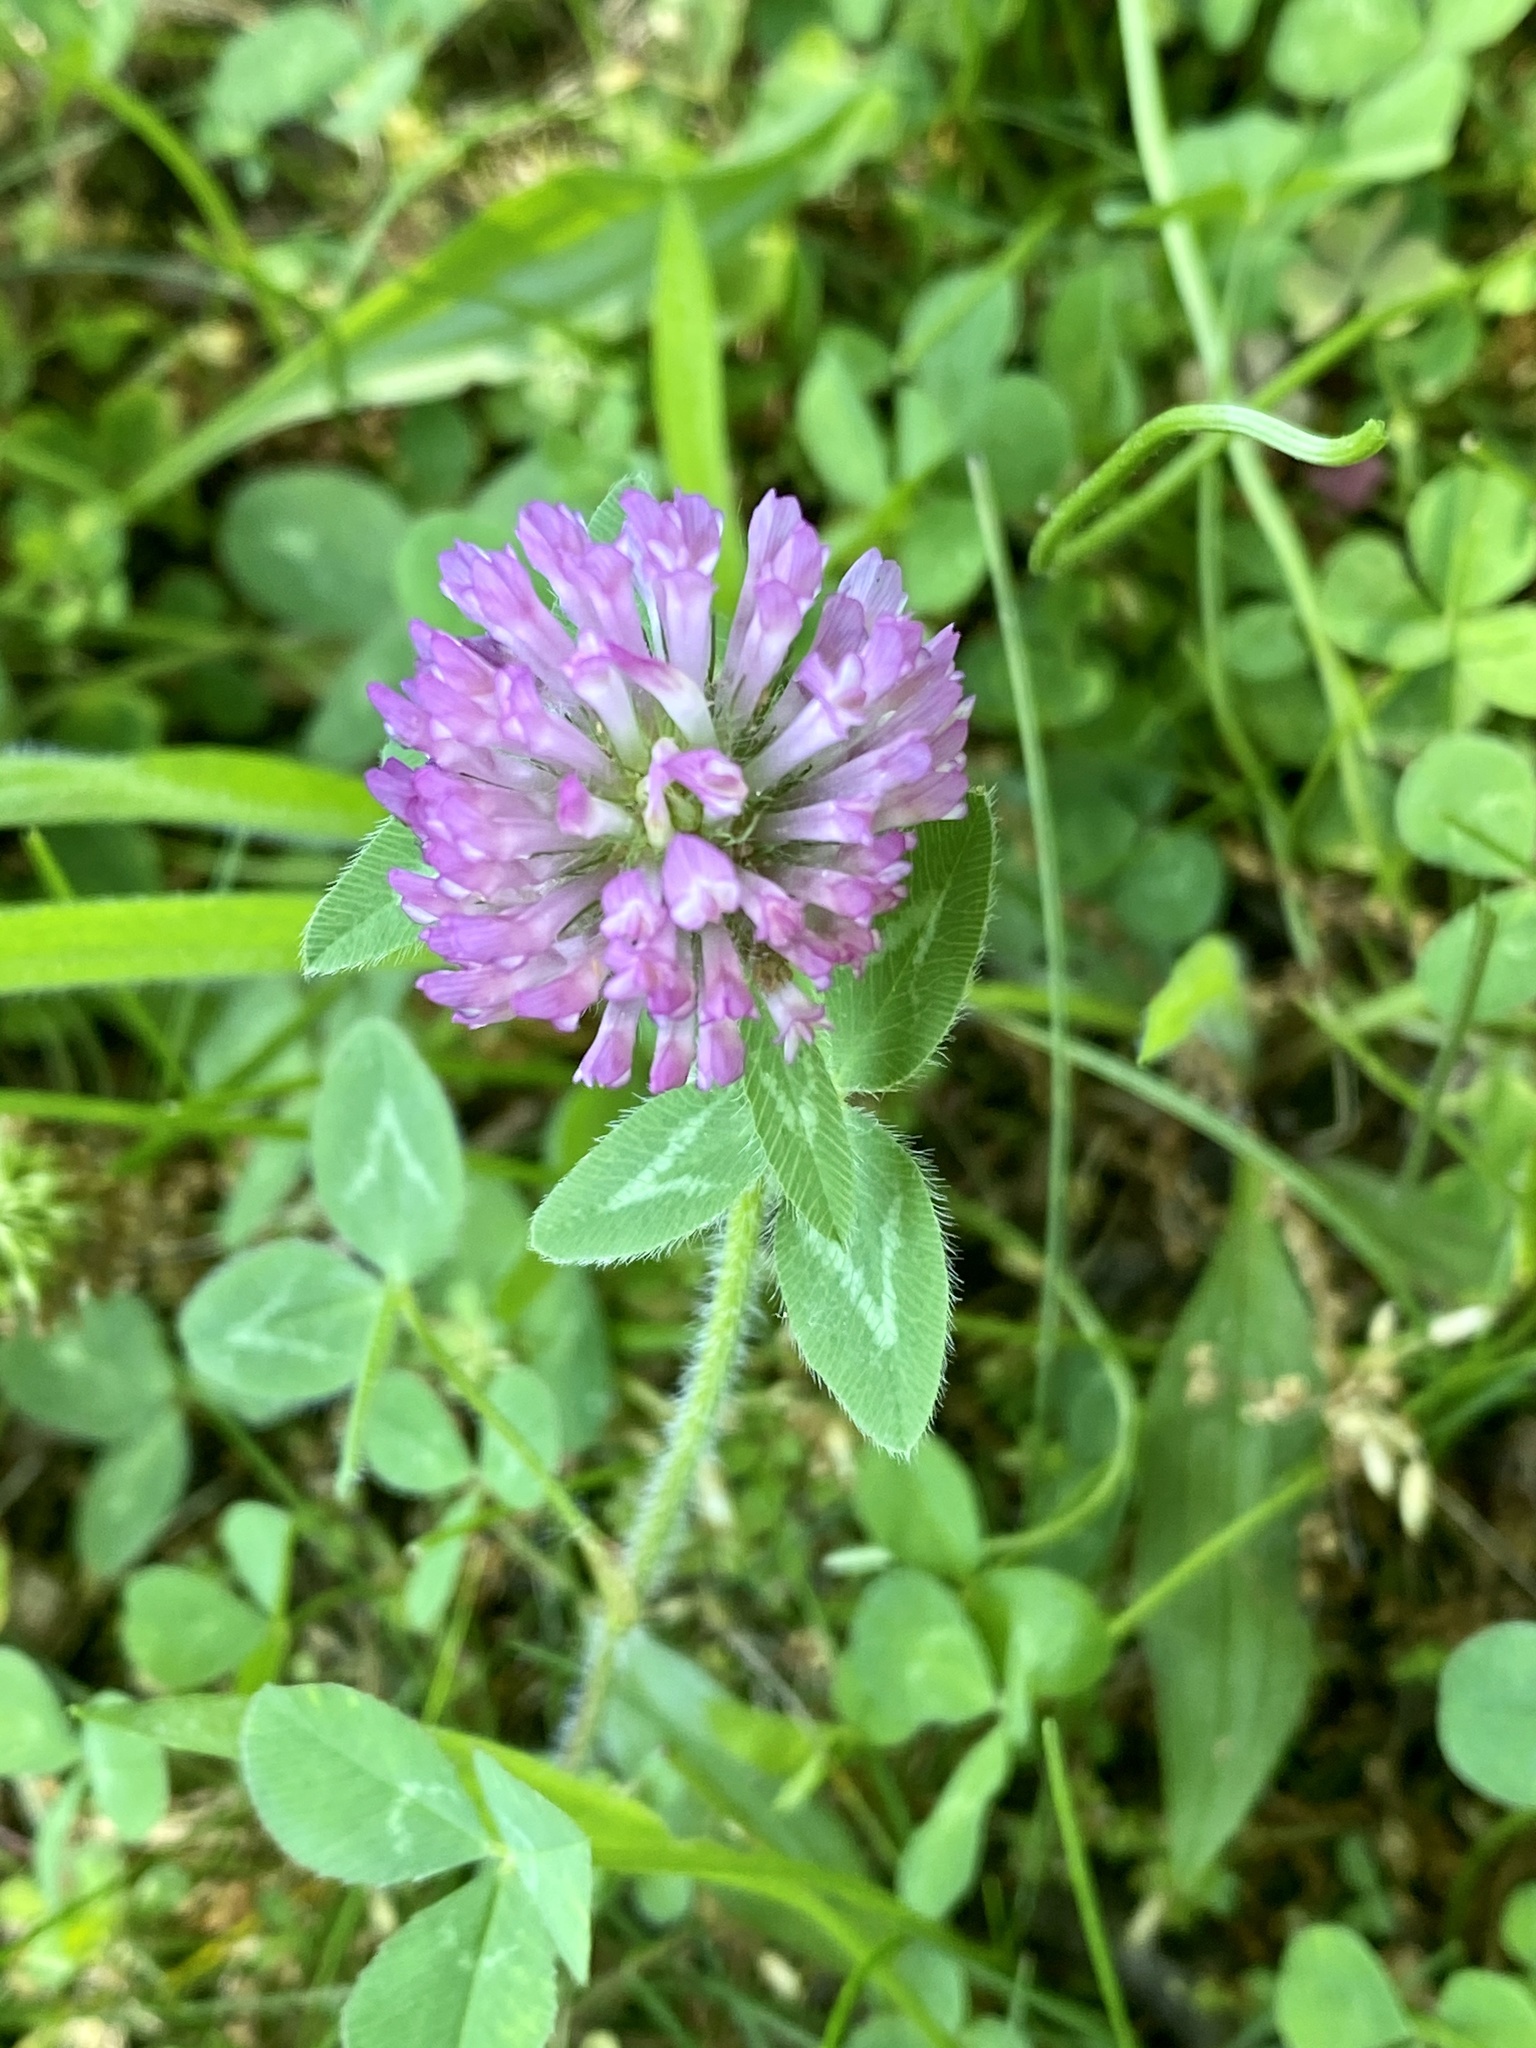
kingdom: Plantae
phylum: Tracheophyta
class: Magnoliopsida
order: Fabales
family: Fabaceae
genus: Trifolium
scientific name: Trifolium pratense
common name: Red clover
